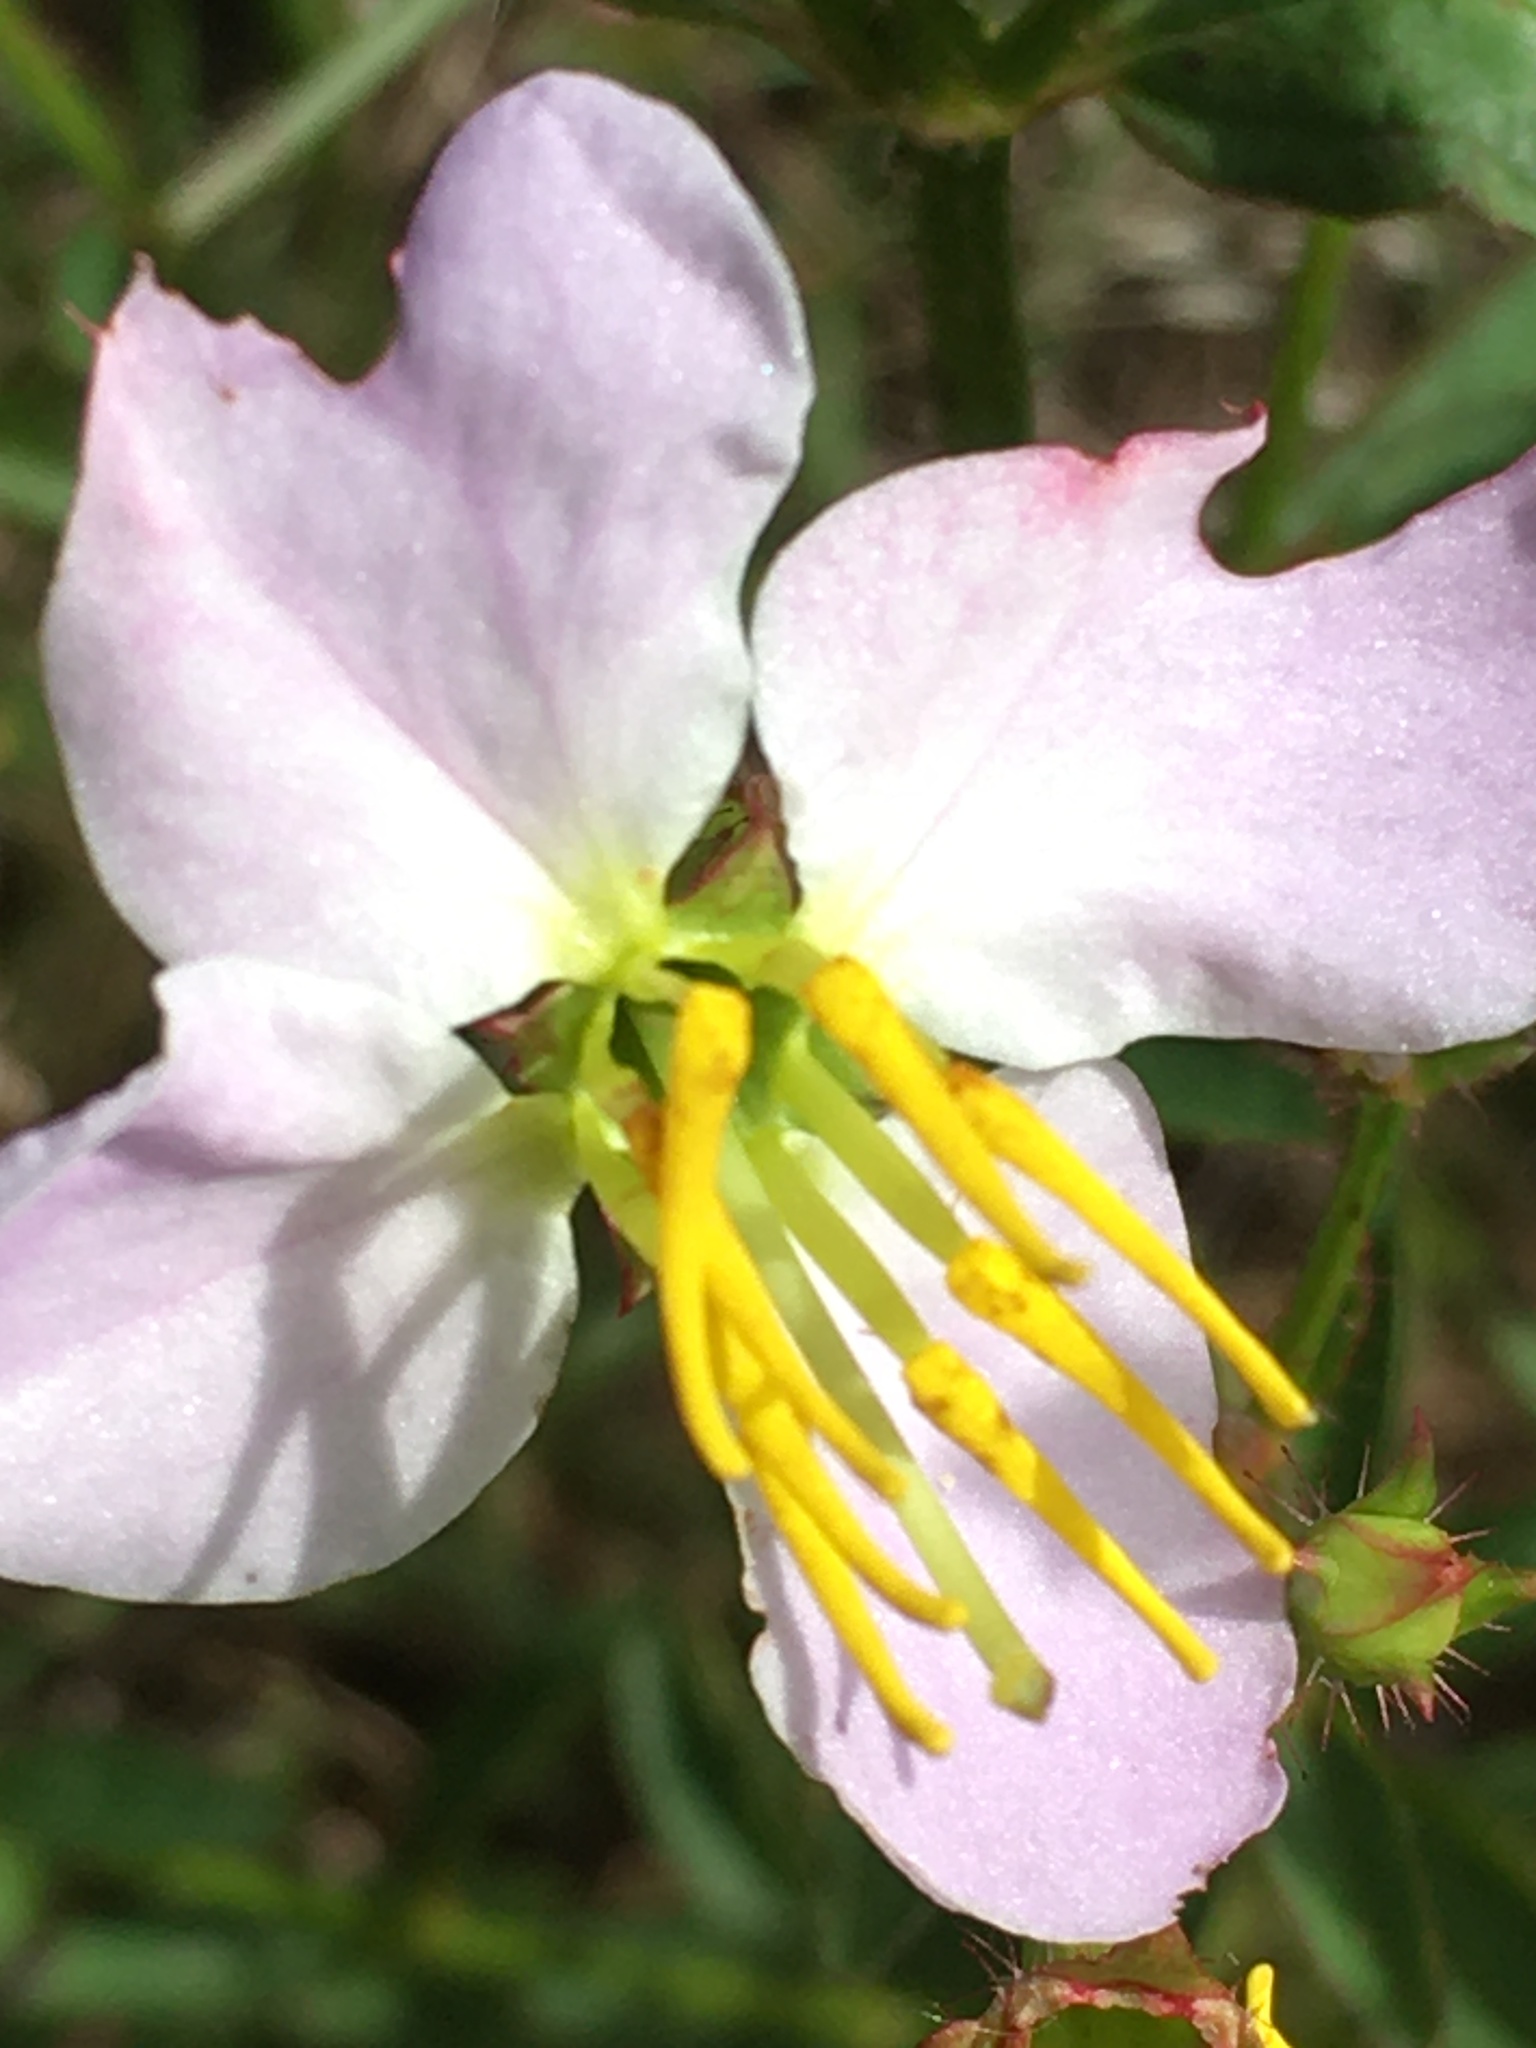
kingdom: Plantae
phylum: Tracheophyta
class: Magnoliopsida
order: Myrtales
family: Melastomataceae
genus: Rhexia
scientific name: Rhexia mariana
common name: Dull meadow-pitcher
